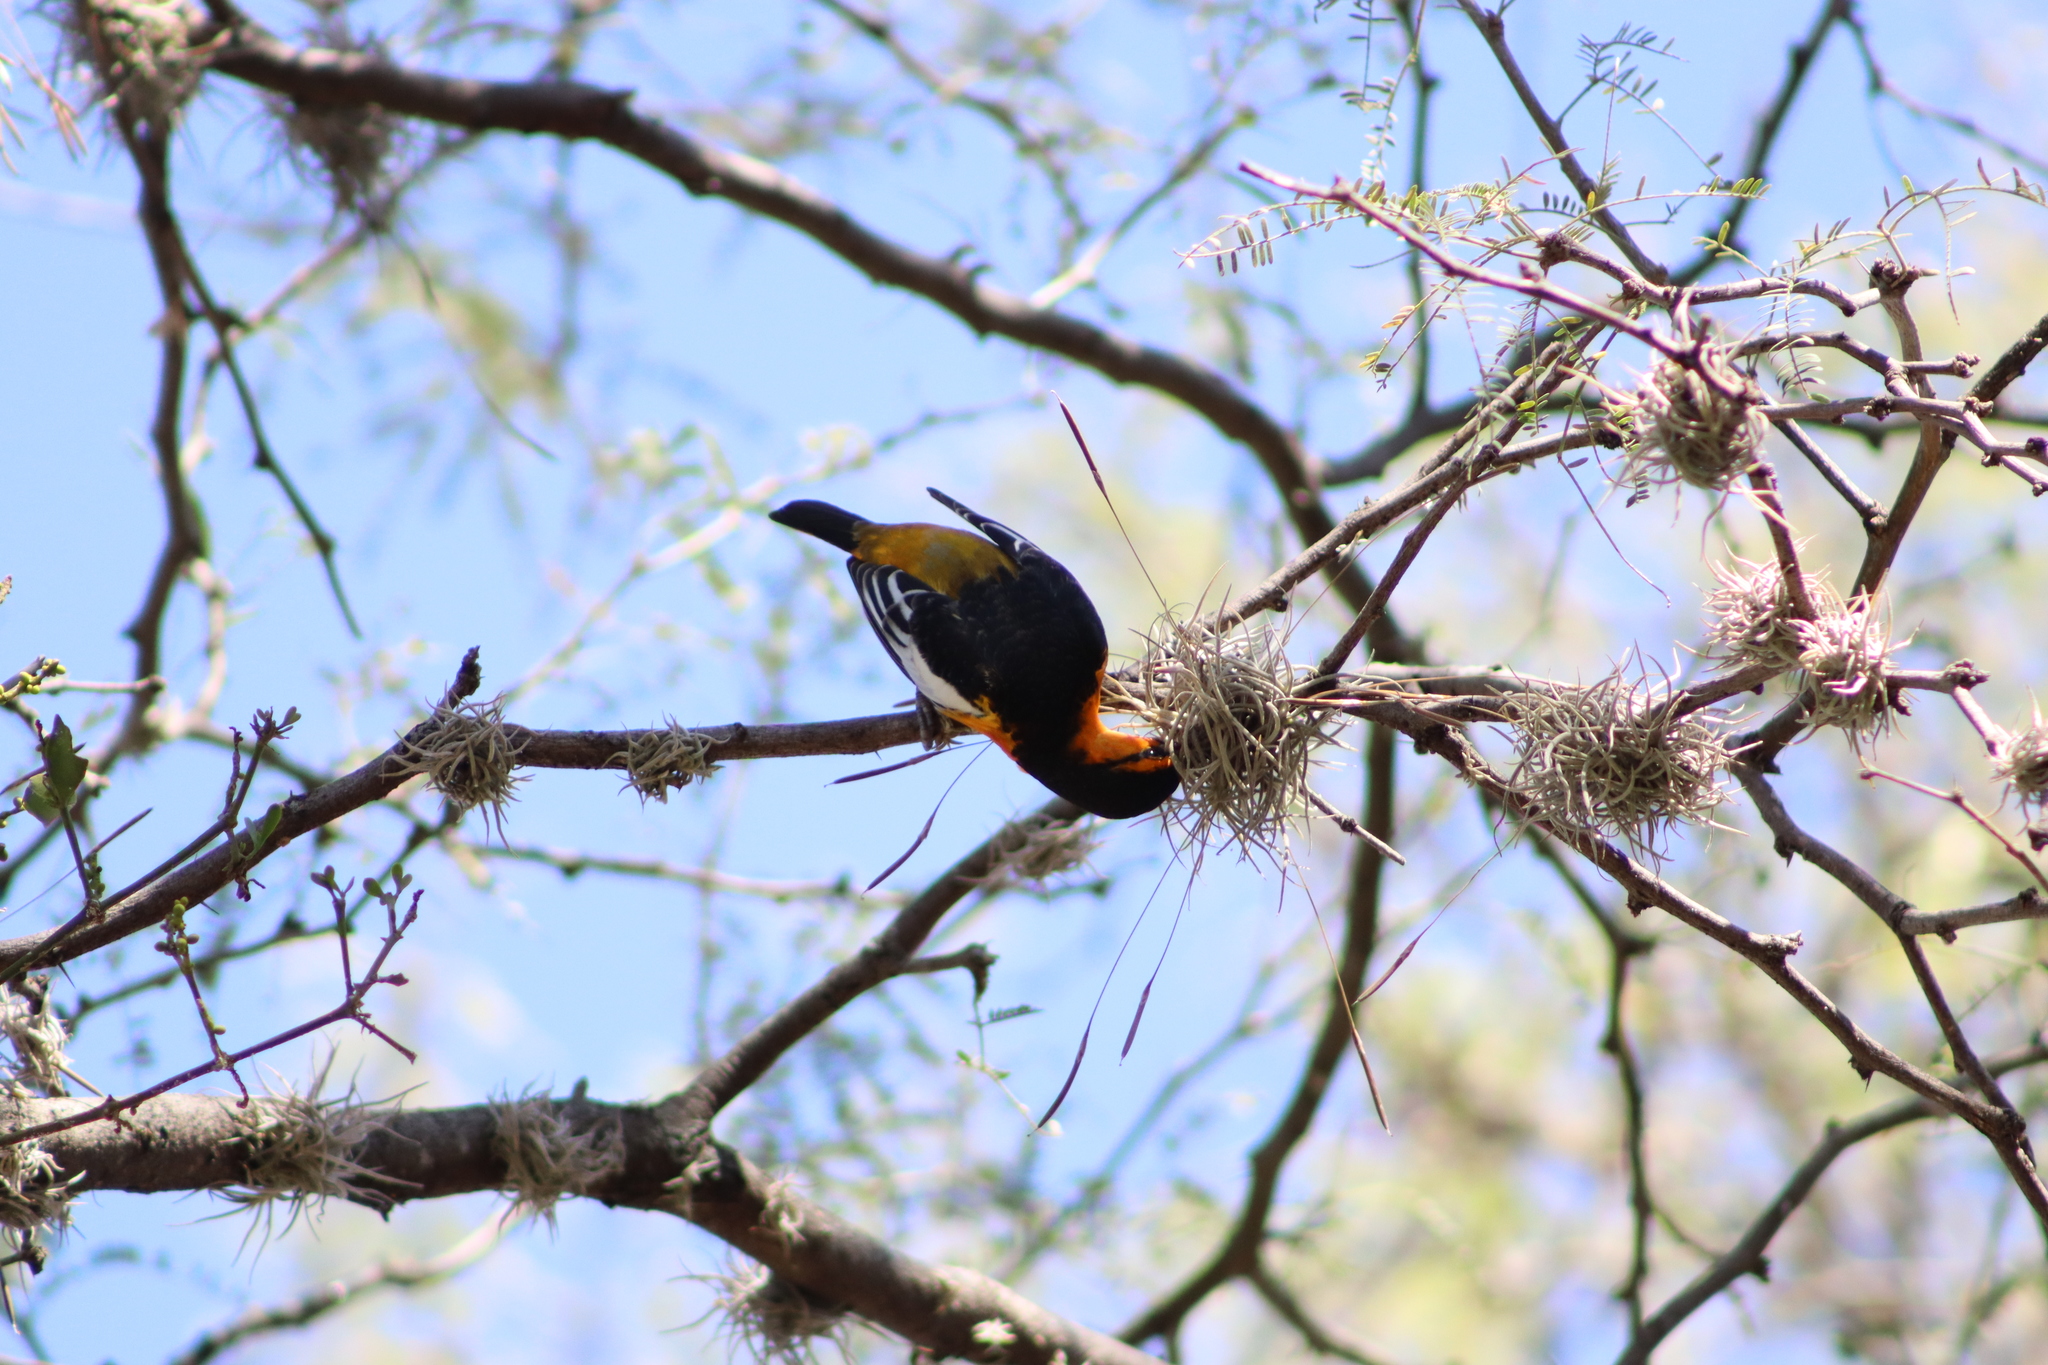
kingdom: Animalia
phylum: Chordata
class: Aves
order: Passeriformes
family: Icteridae
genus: Icterus
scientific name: Icterus bullockii
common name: Bullock's oriole
